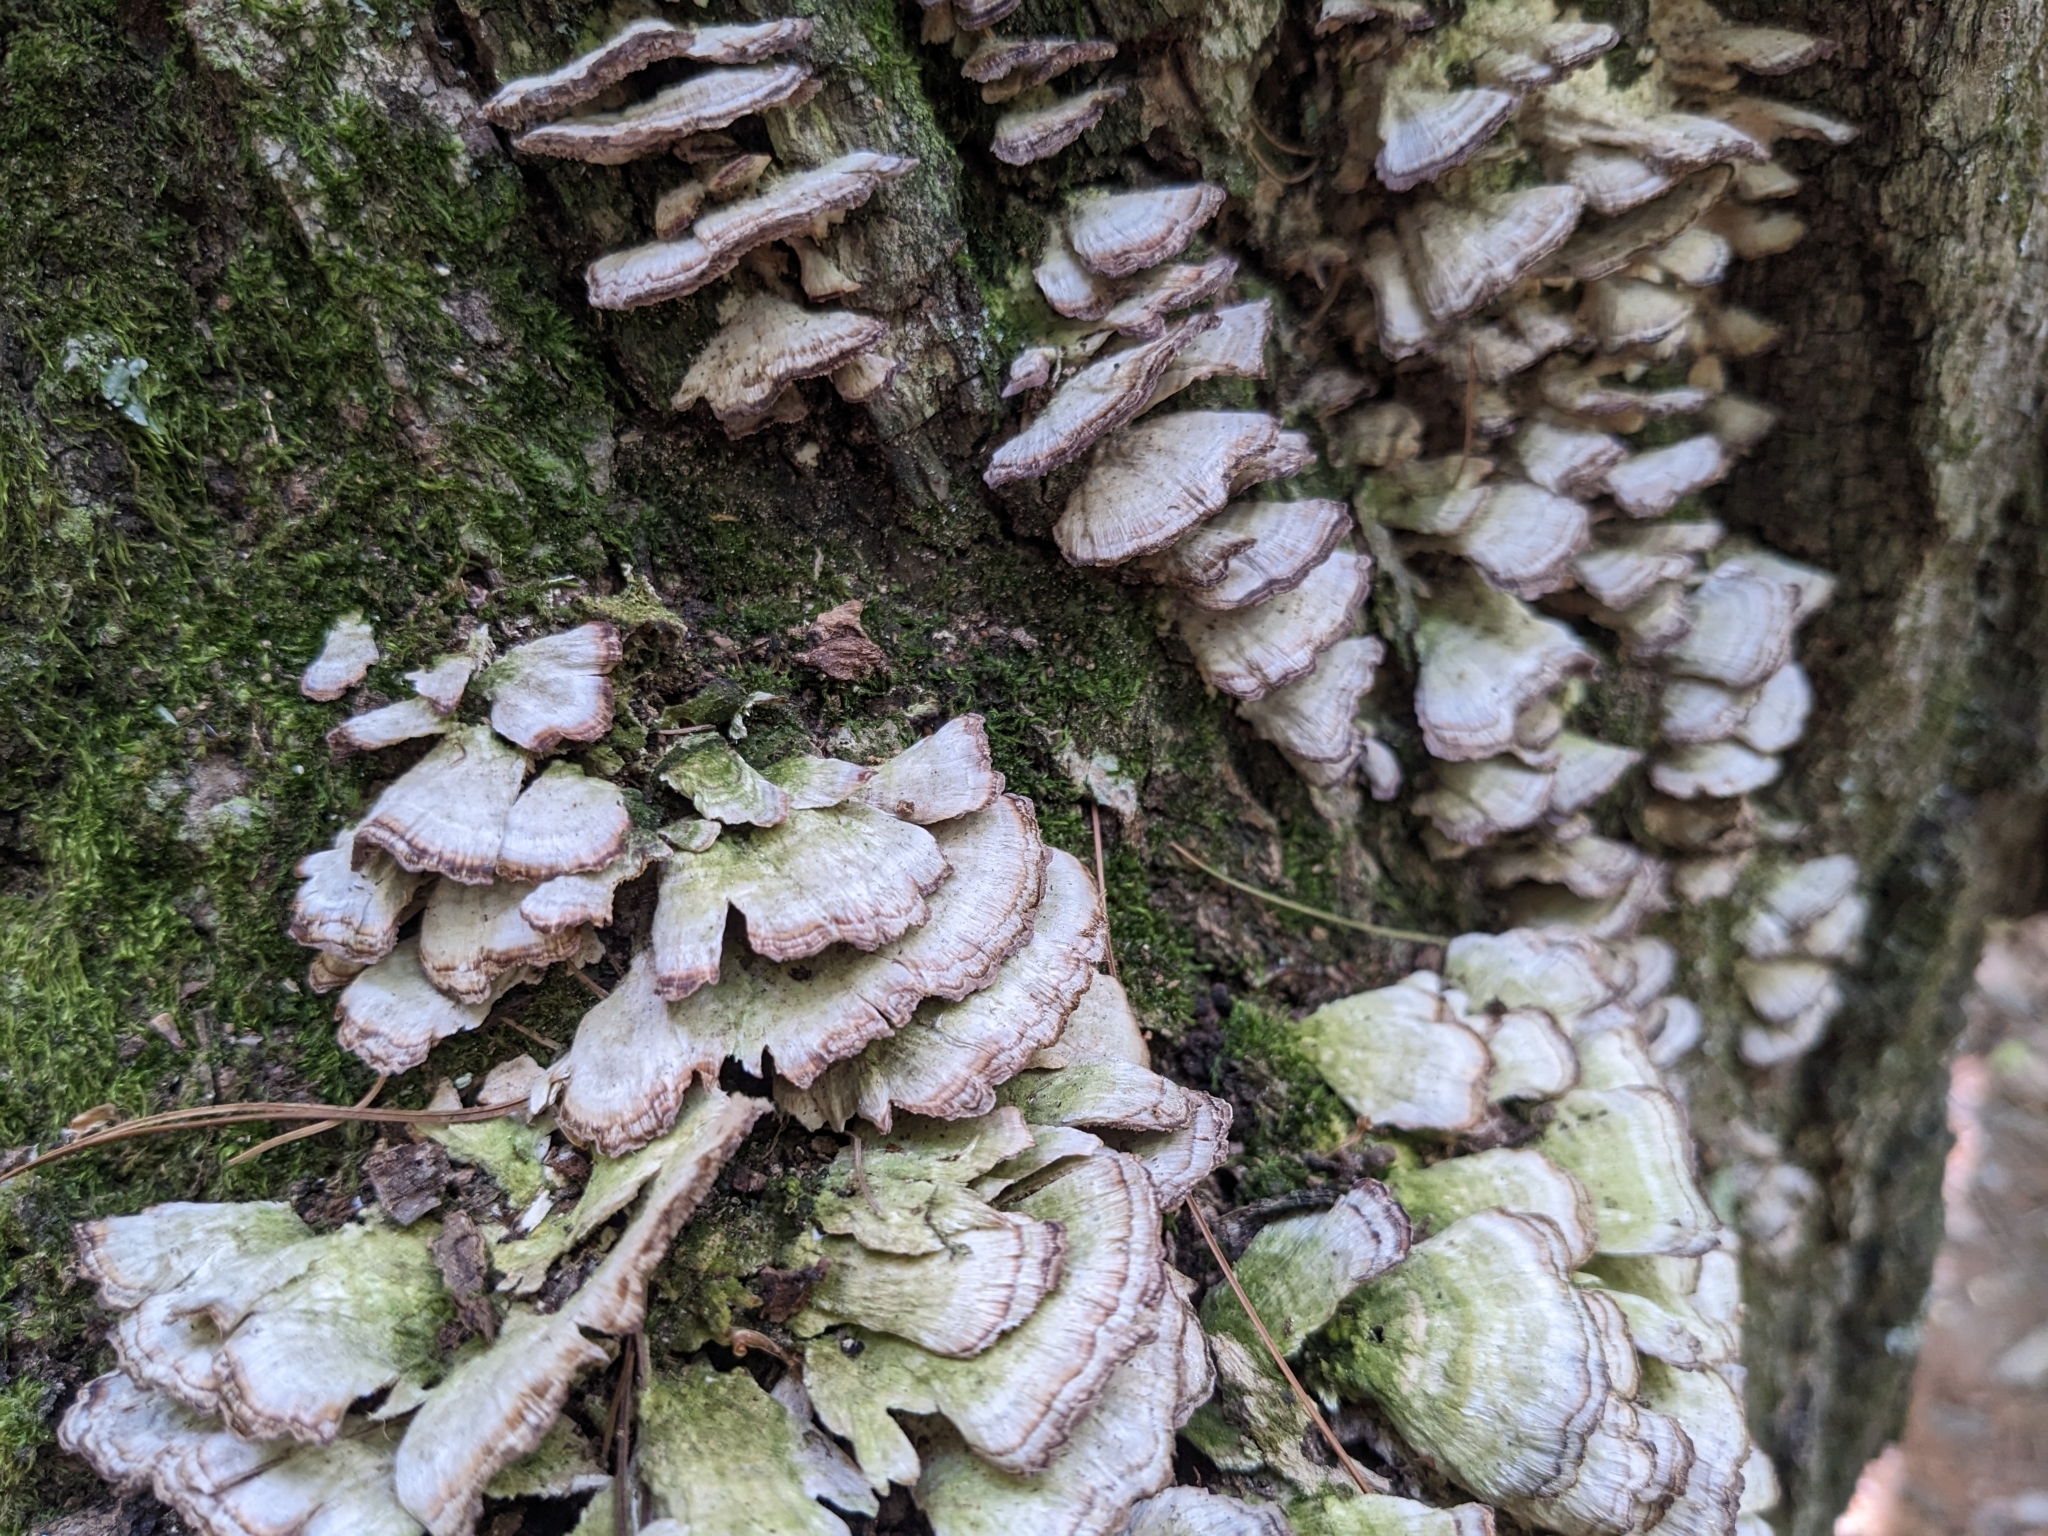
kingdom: Fungi
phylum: Basidiomycota
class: Agaricomycetes
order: Hymenochaetales
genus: Trichaptum
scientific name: Trichaptum biforme
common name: Violet-toothed polypore
